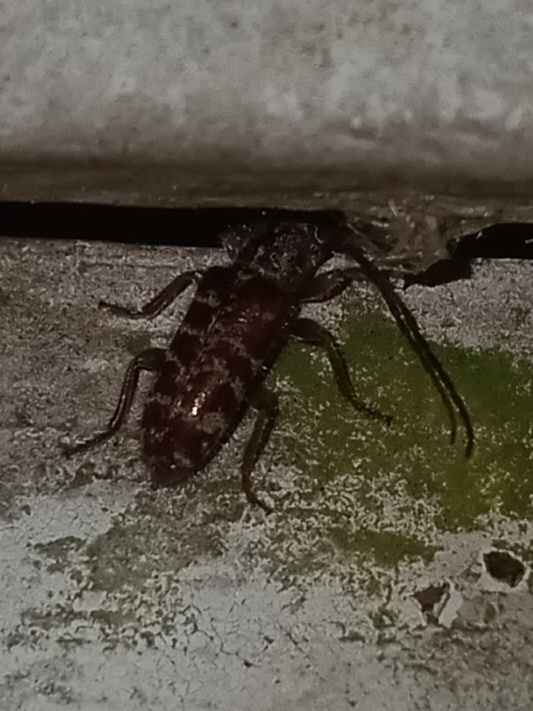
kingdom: Animalia
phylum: Arthropoda
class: Insecta
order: Coleoptera
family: Cerambycidae
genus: Eupogonius
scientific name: Eupogonius tomentosus
